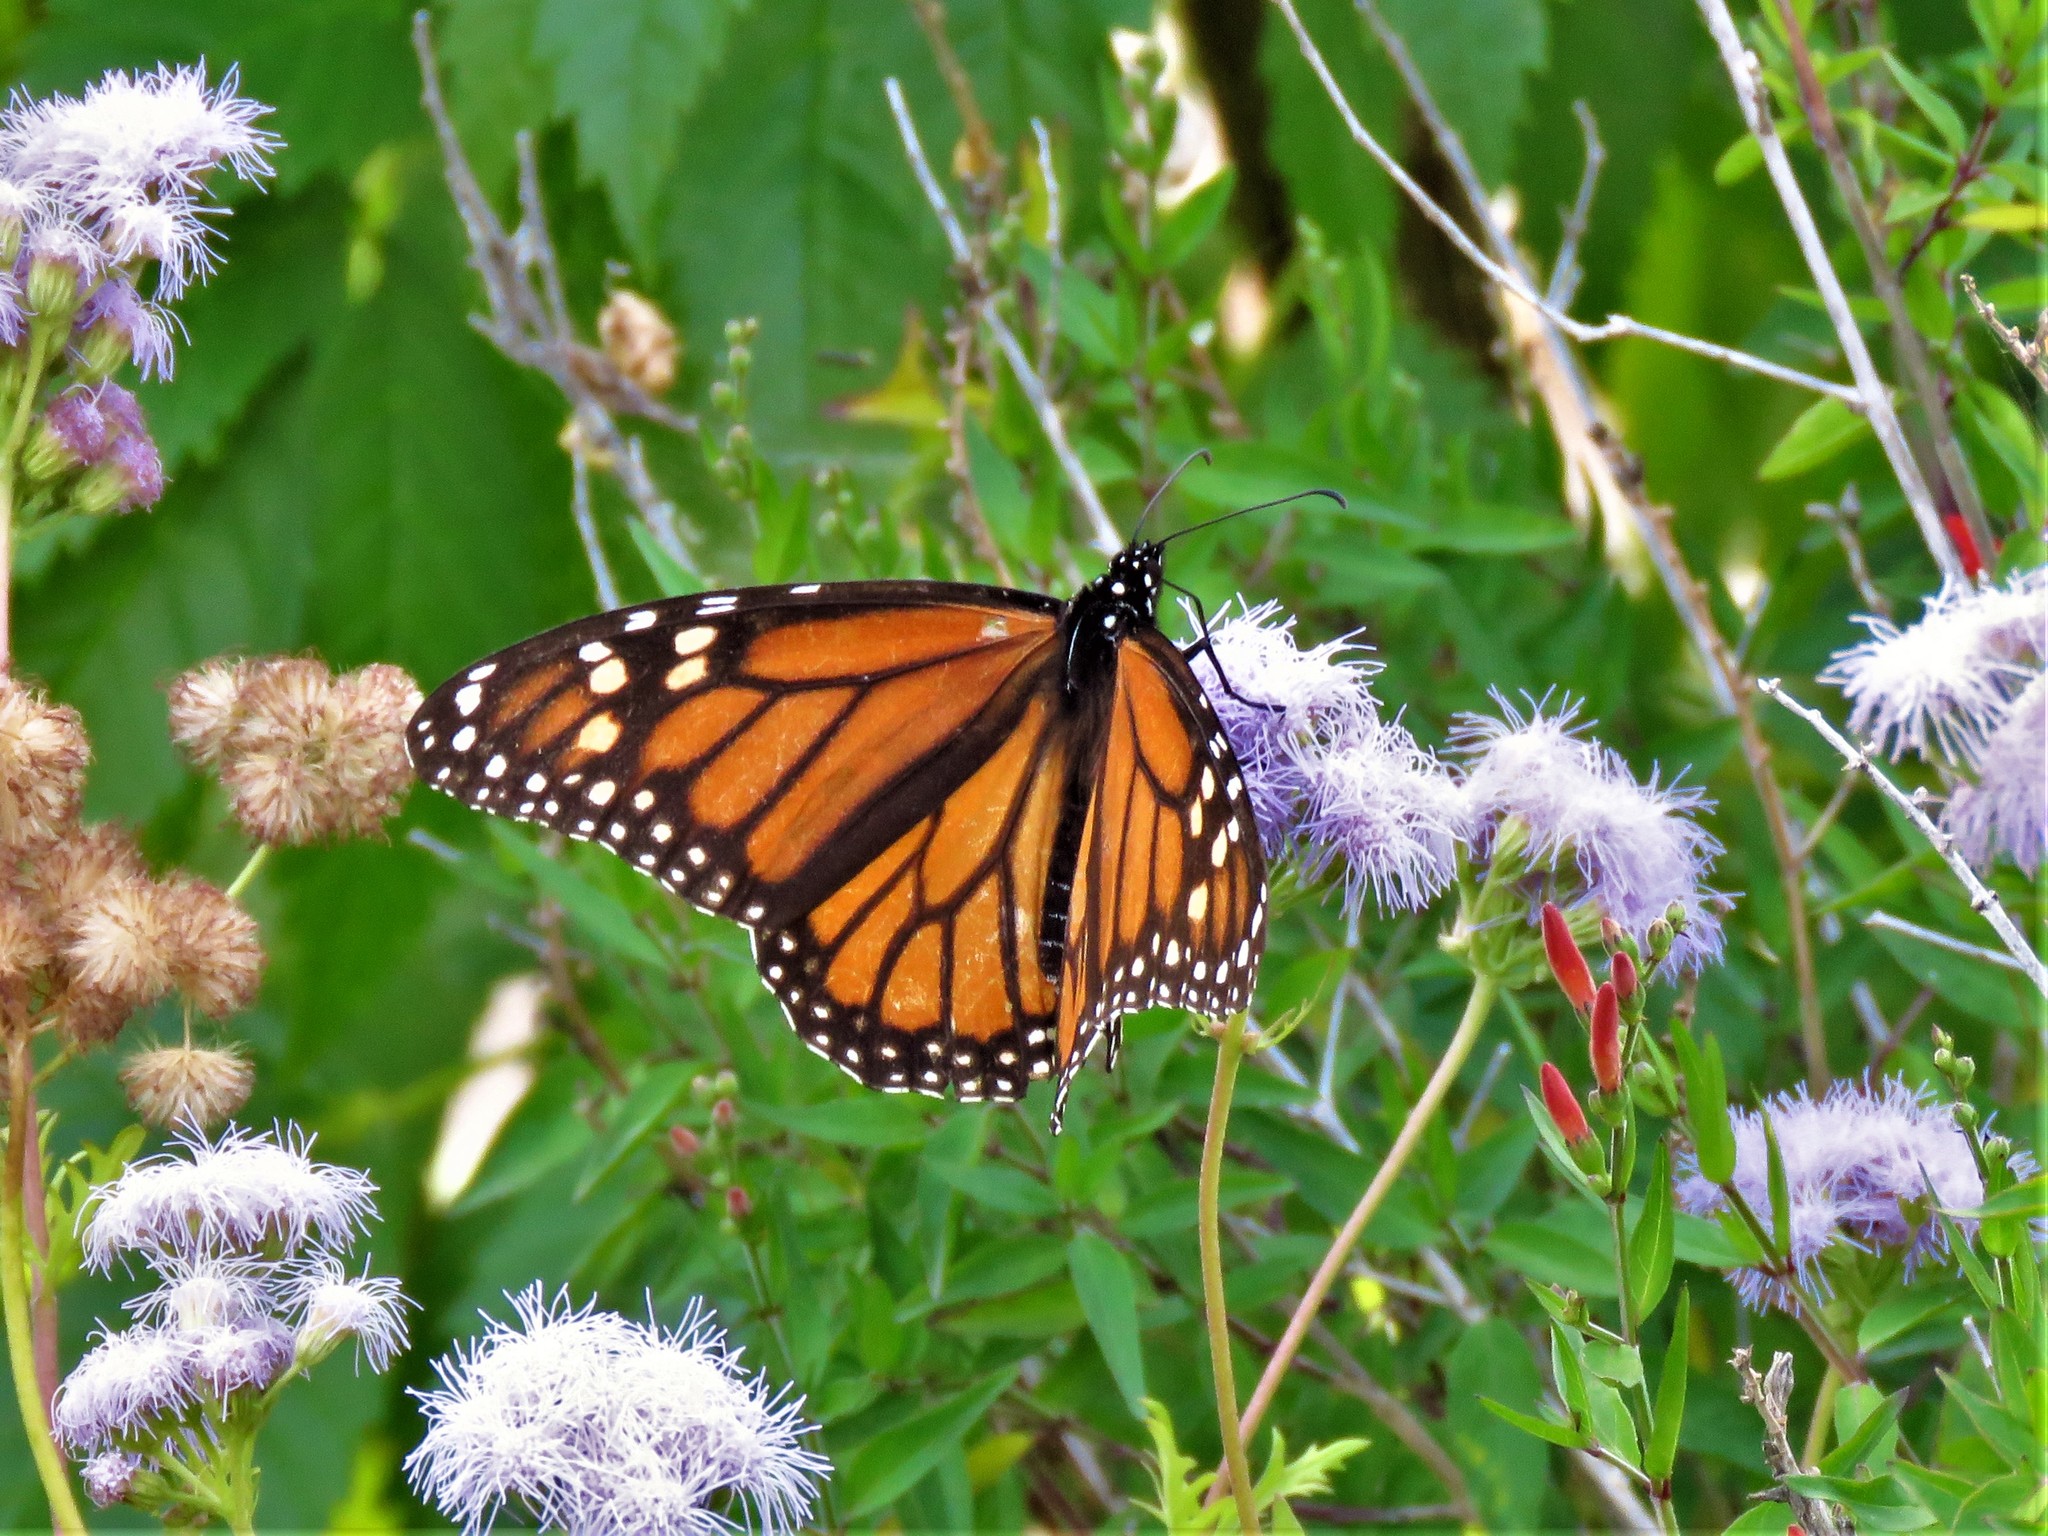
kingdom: Animalia
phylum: Arthropoda
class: Insecta
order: Lepidoptera
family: Nymphalidae
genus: Danaus
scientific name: Danaus plexippus
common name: Monarch
